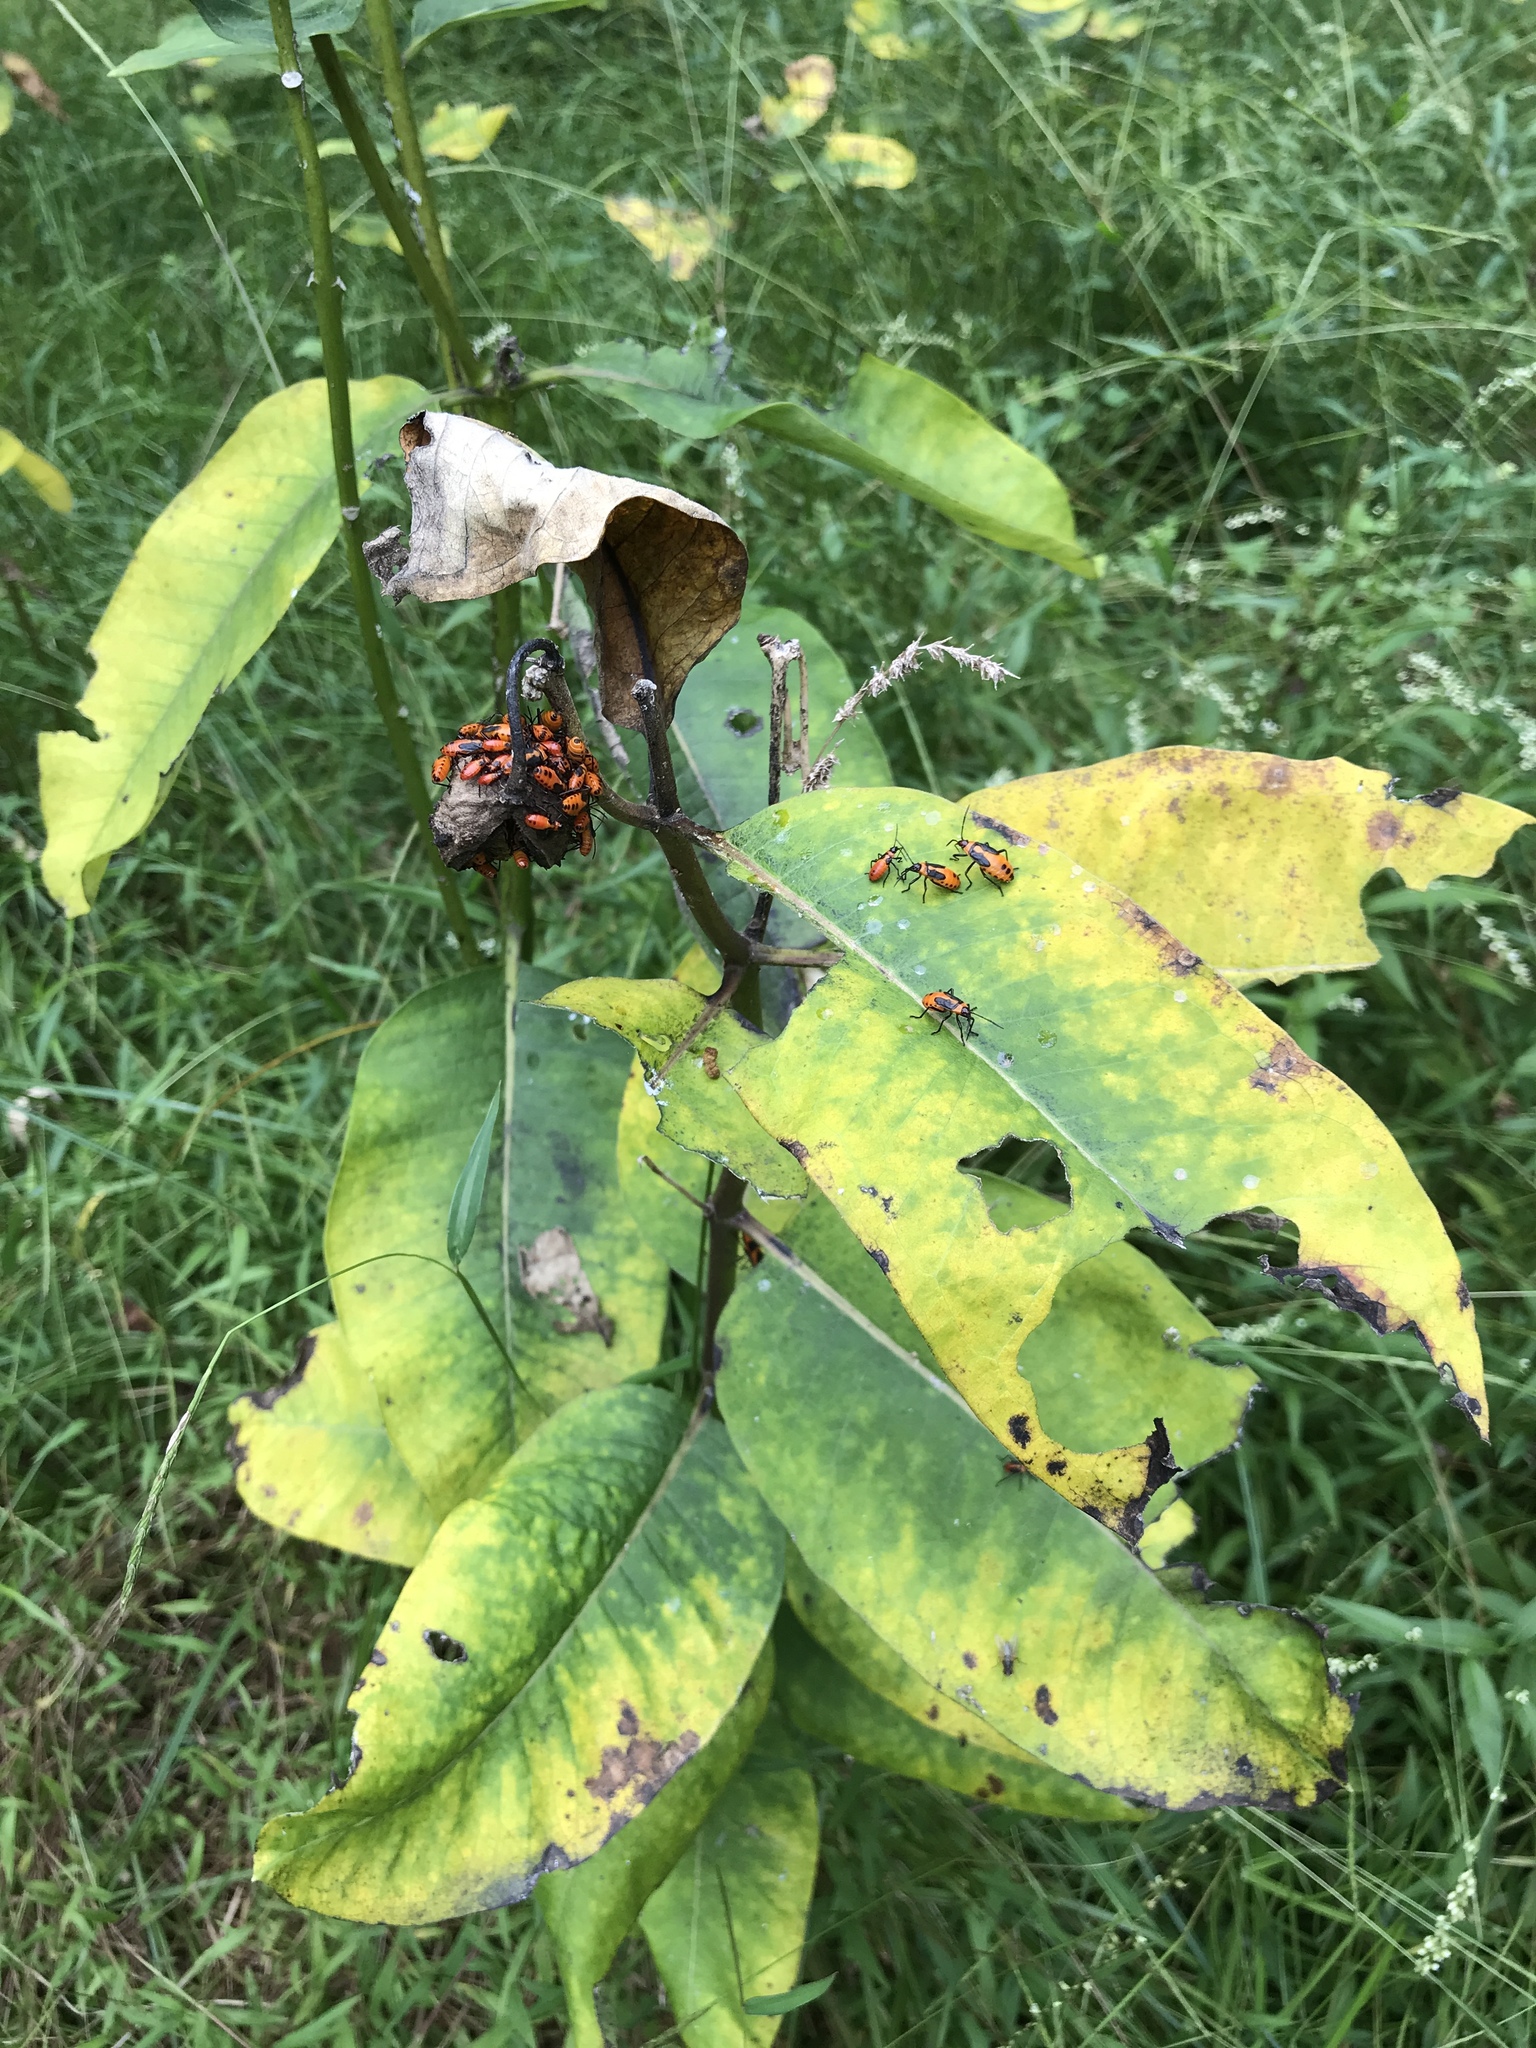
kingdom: Plantae
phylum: Tracheophyta
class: Magnoliopsida
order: Gentianales
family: Apocynaceae
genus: Asclepias
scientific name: Asclepias syriaca
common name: Common milkweed
